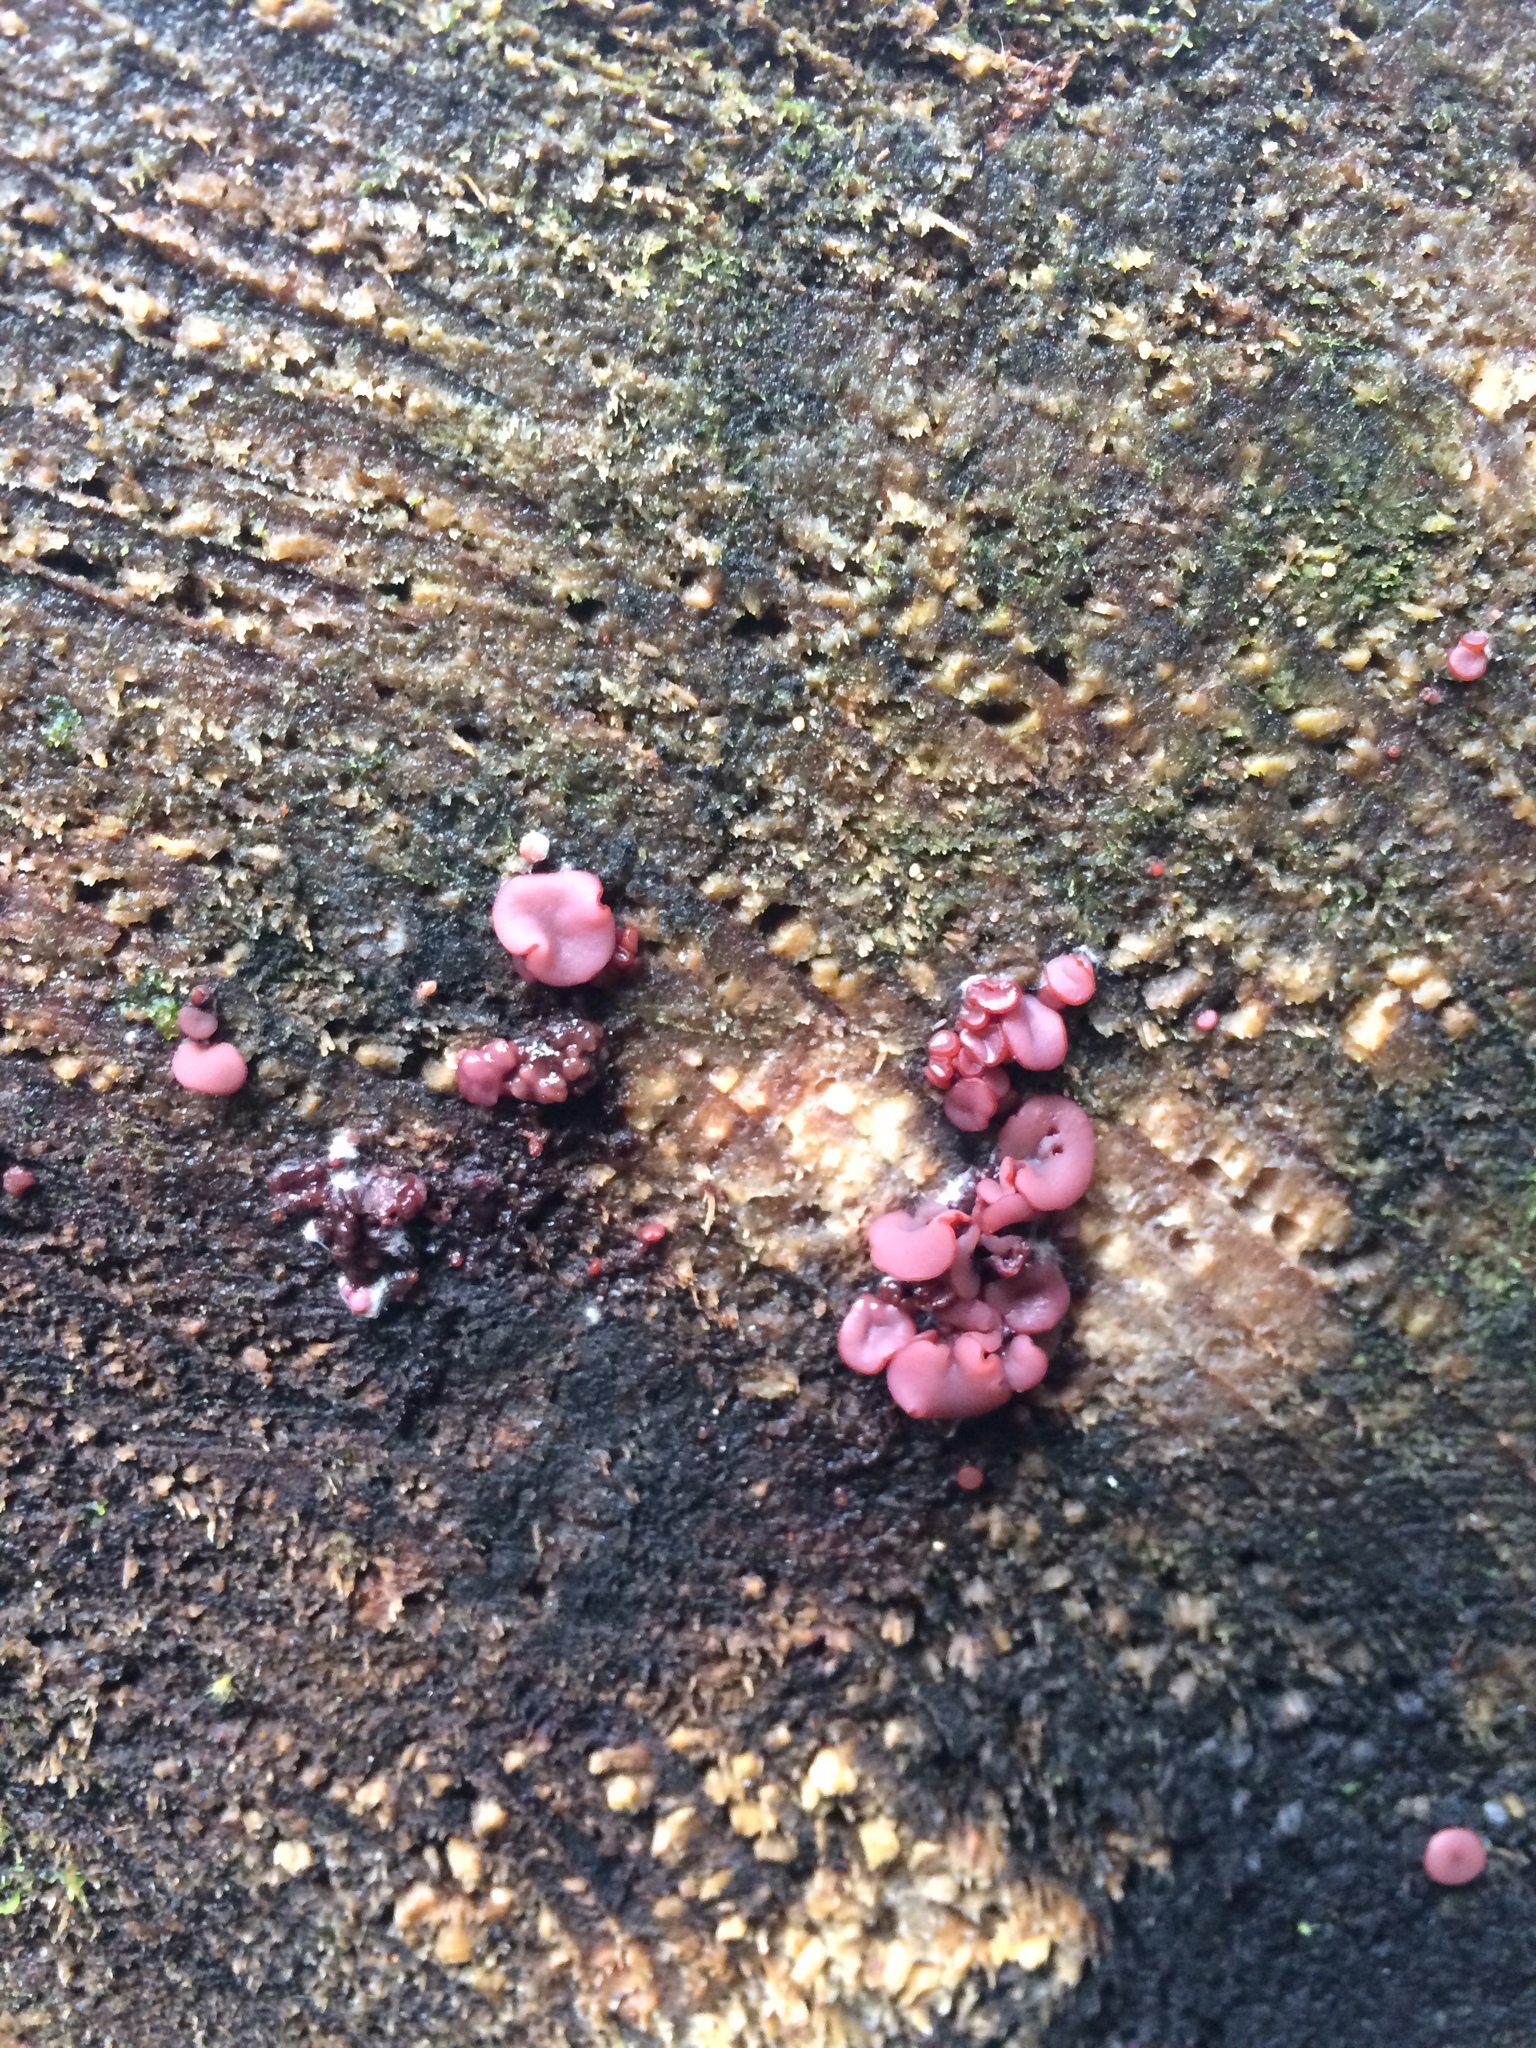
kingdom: Fungi
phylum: Ascomycota
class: Leotiomycetes
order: Helotiales
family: Gelatinodiscaceae
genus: Ascocoryne
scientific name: Ascocoryne sarcoides
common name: Purple jellydisc
